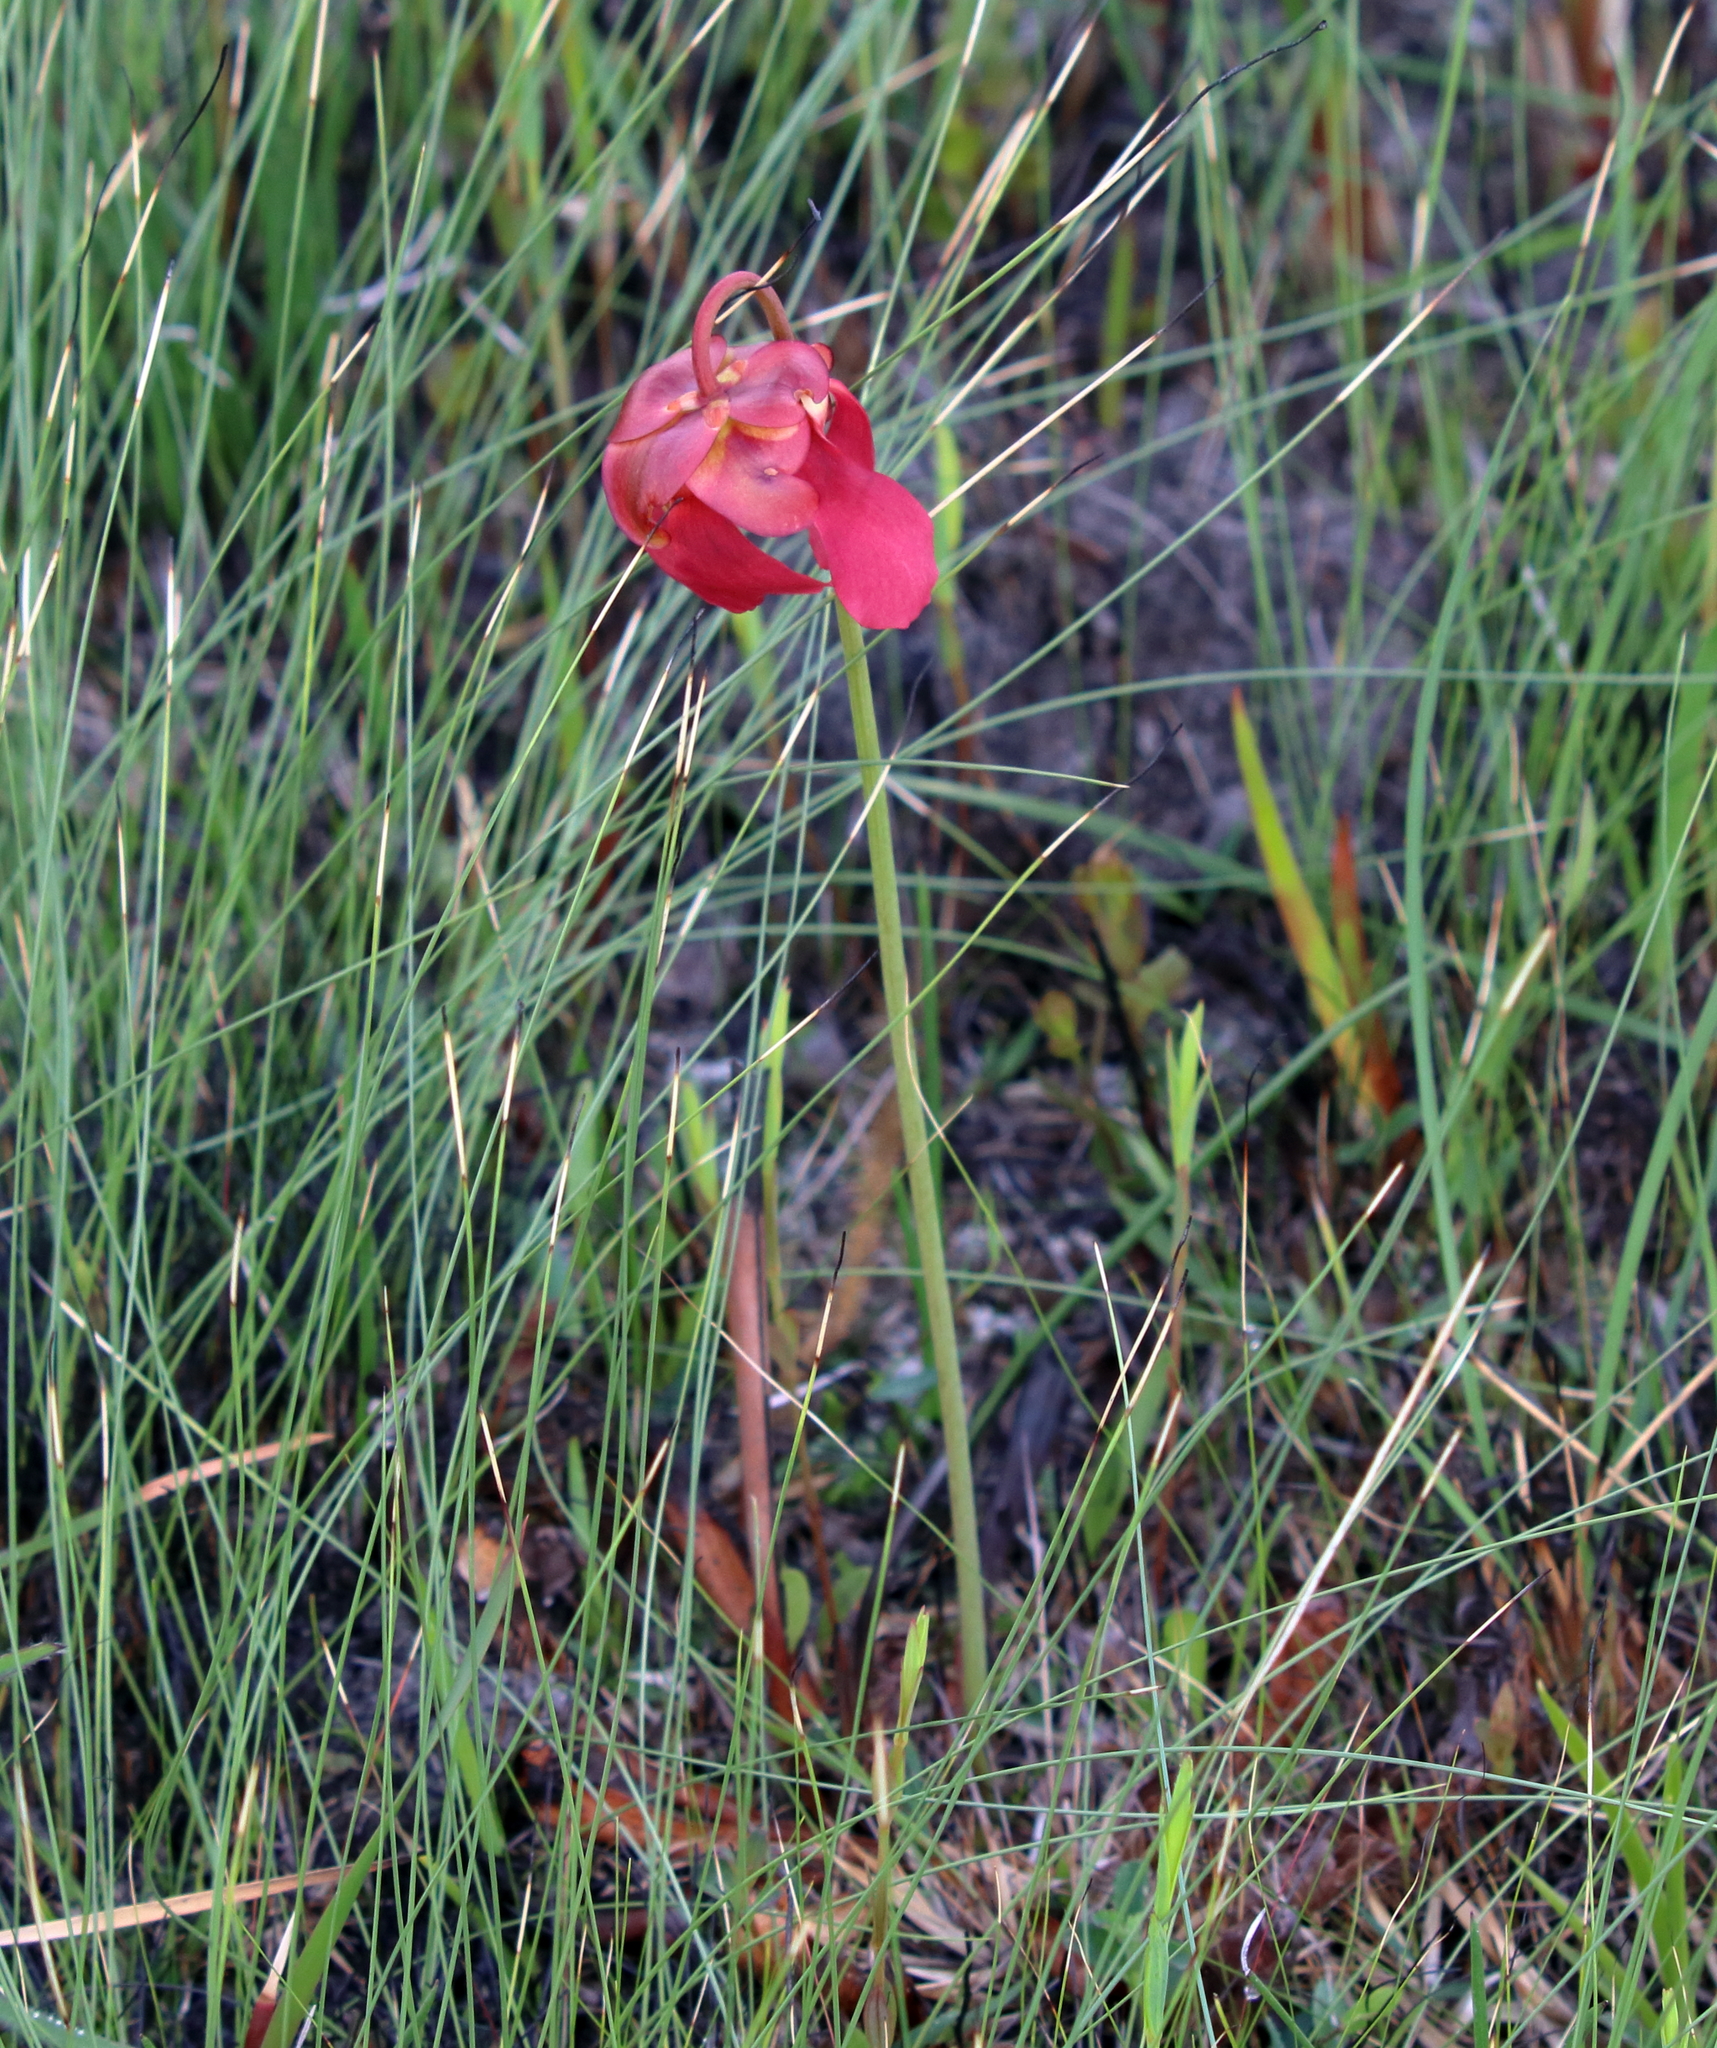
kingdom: Plantae
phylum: Tracheophyta
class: Magnoliopsida
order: Ericales
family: Sarraceniaceae
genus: Sarracenia
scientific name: Sarracenia psittacina
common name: Parrot pitcherplant
